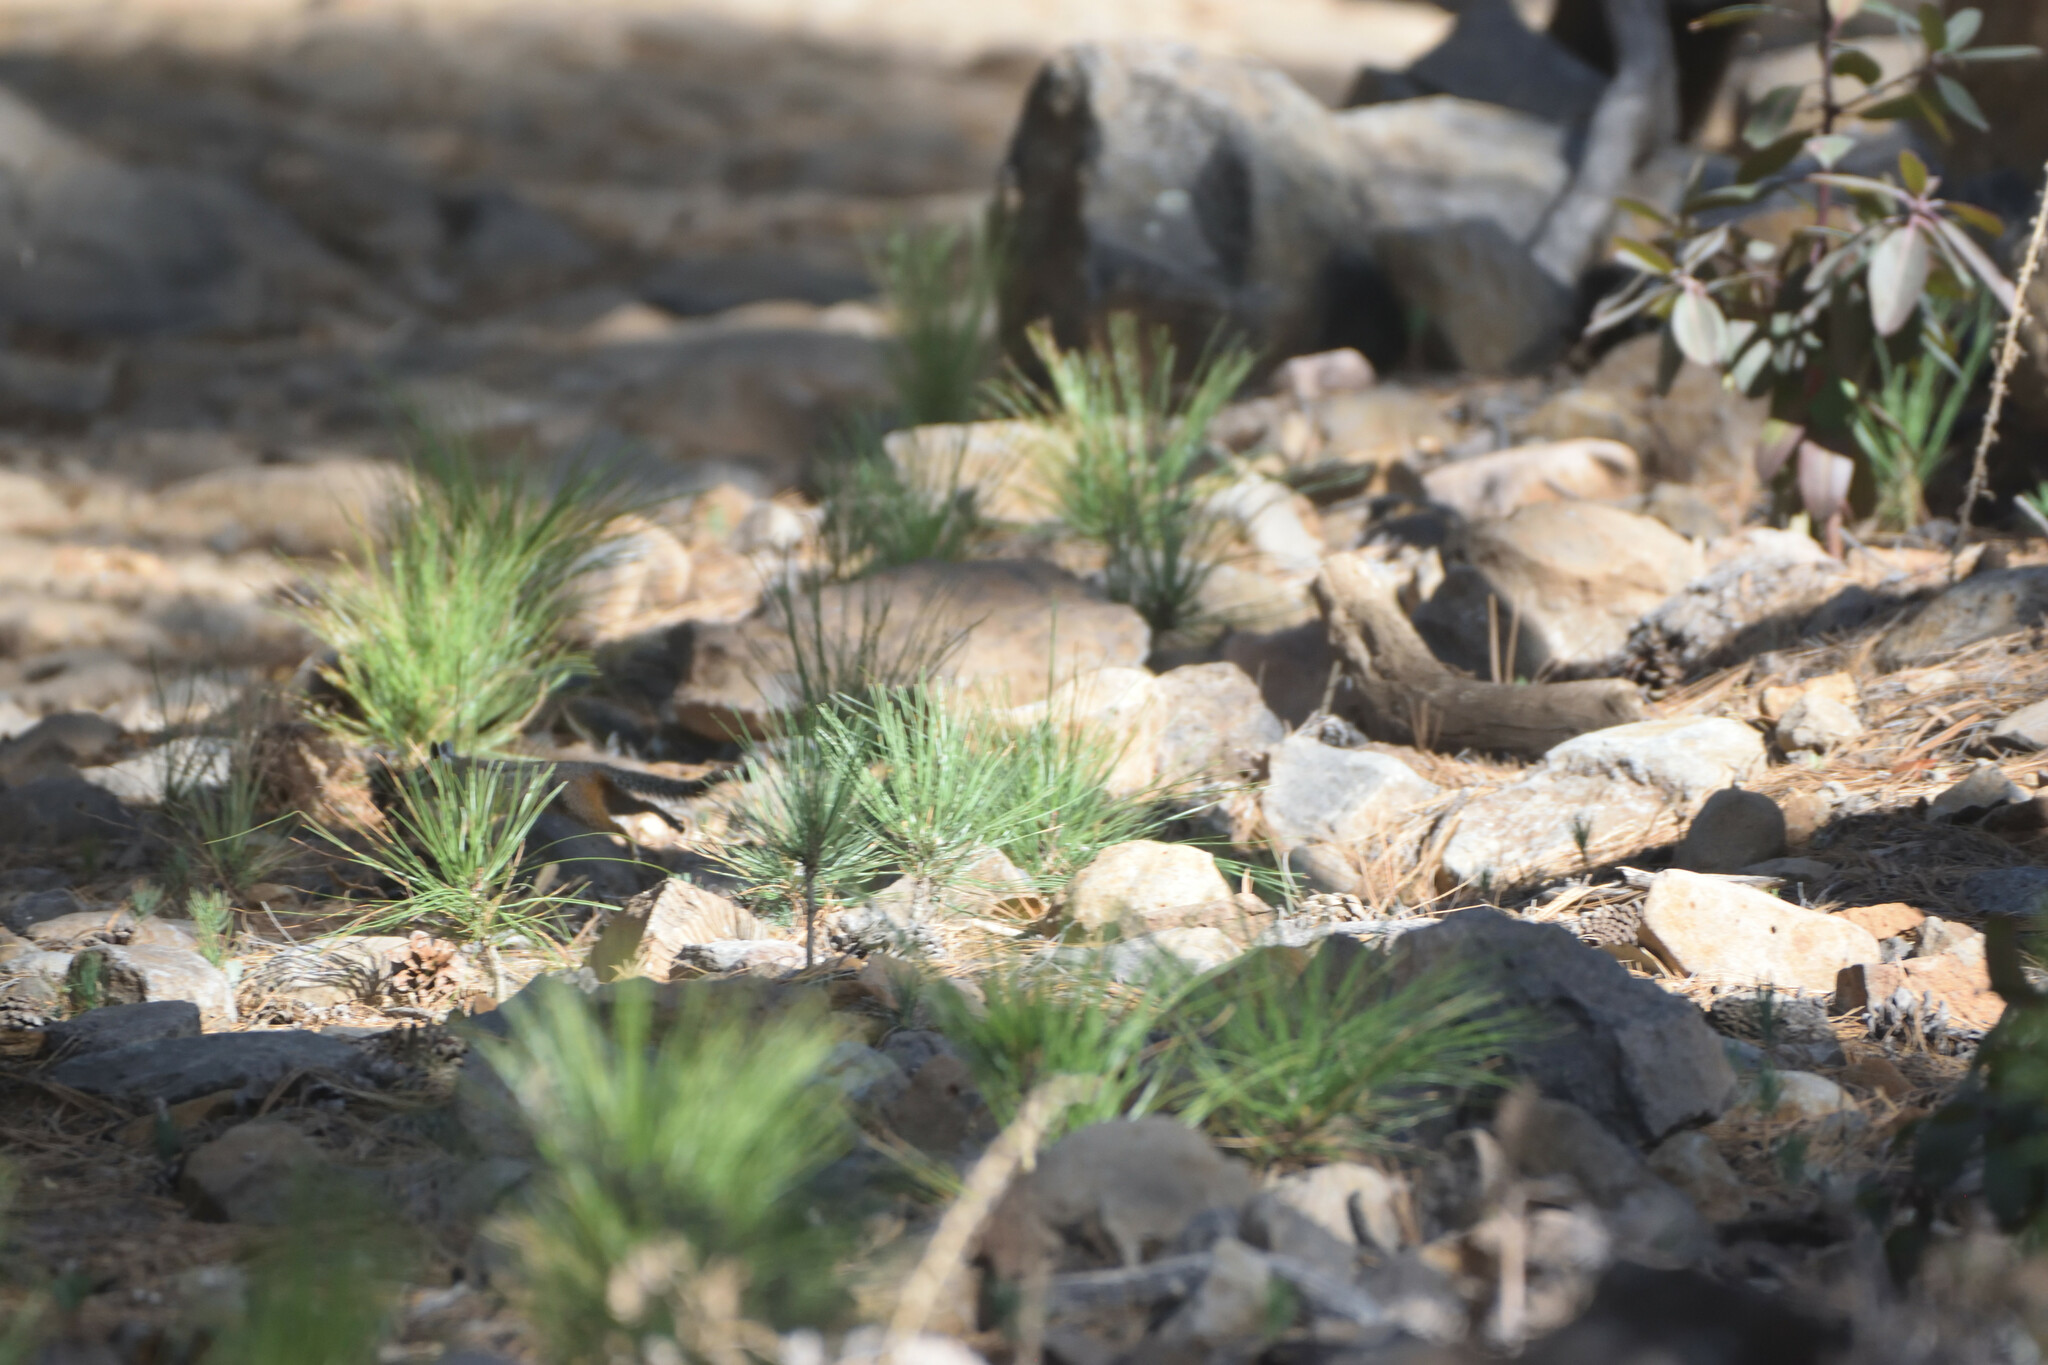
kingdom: Animalia
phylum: Chordata
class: Mammalia
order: Rodentia
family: Sciuridae
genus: Tamias
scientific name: Tamias dorsalis
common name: Cliff chipmunk
